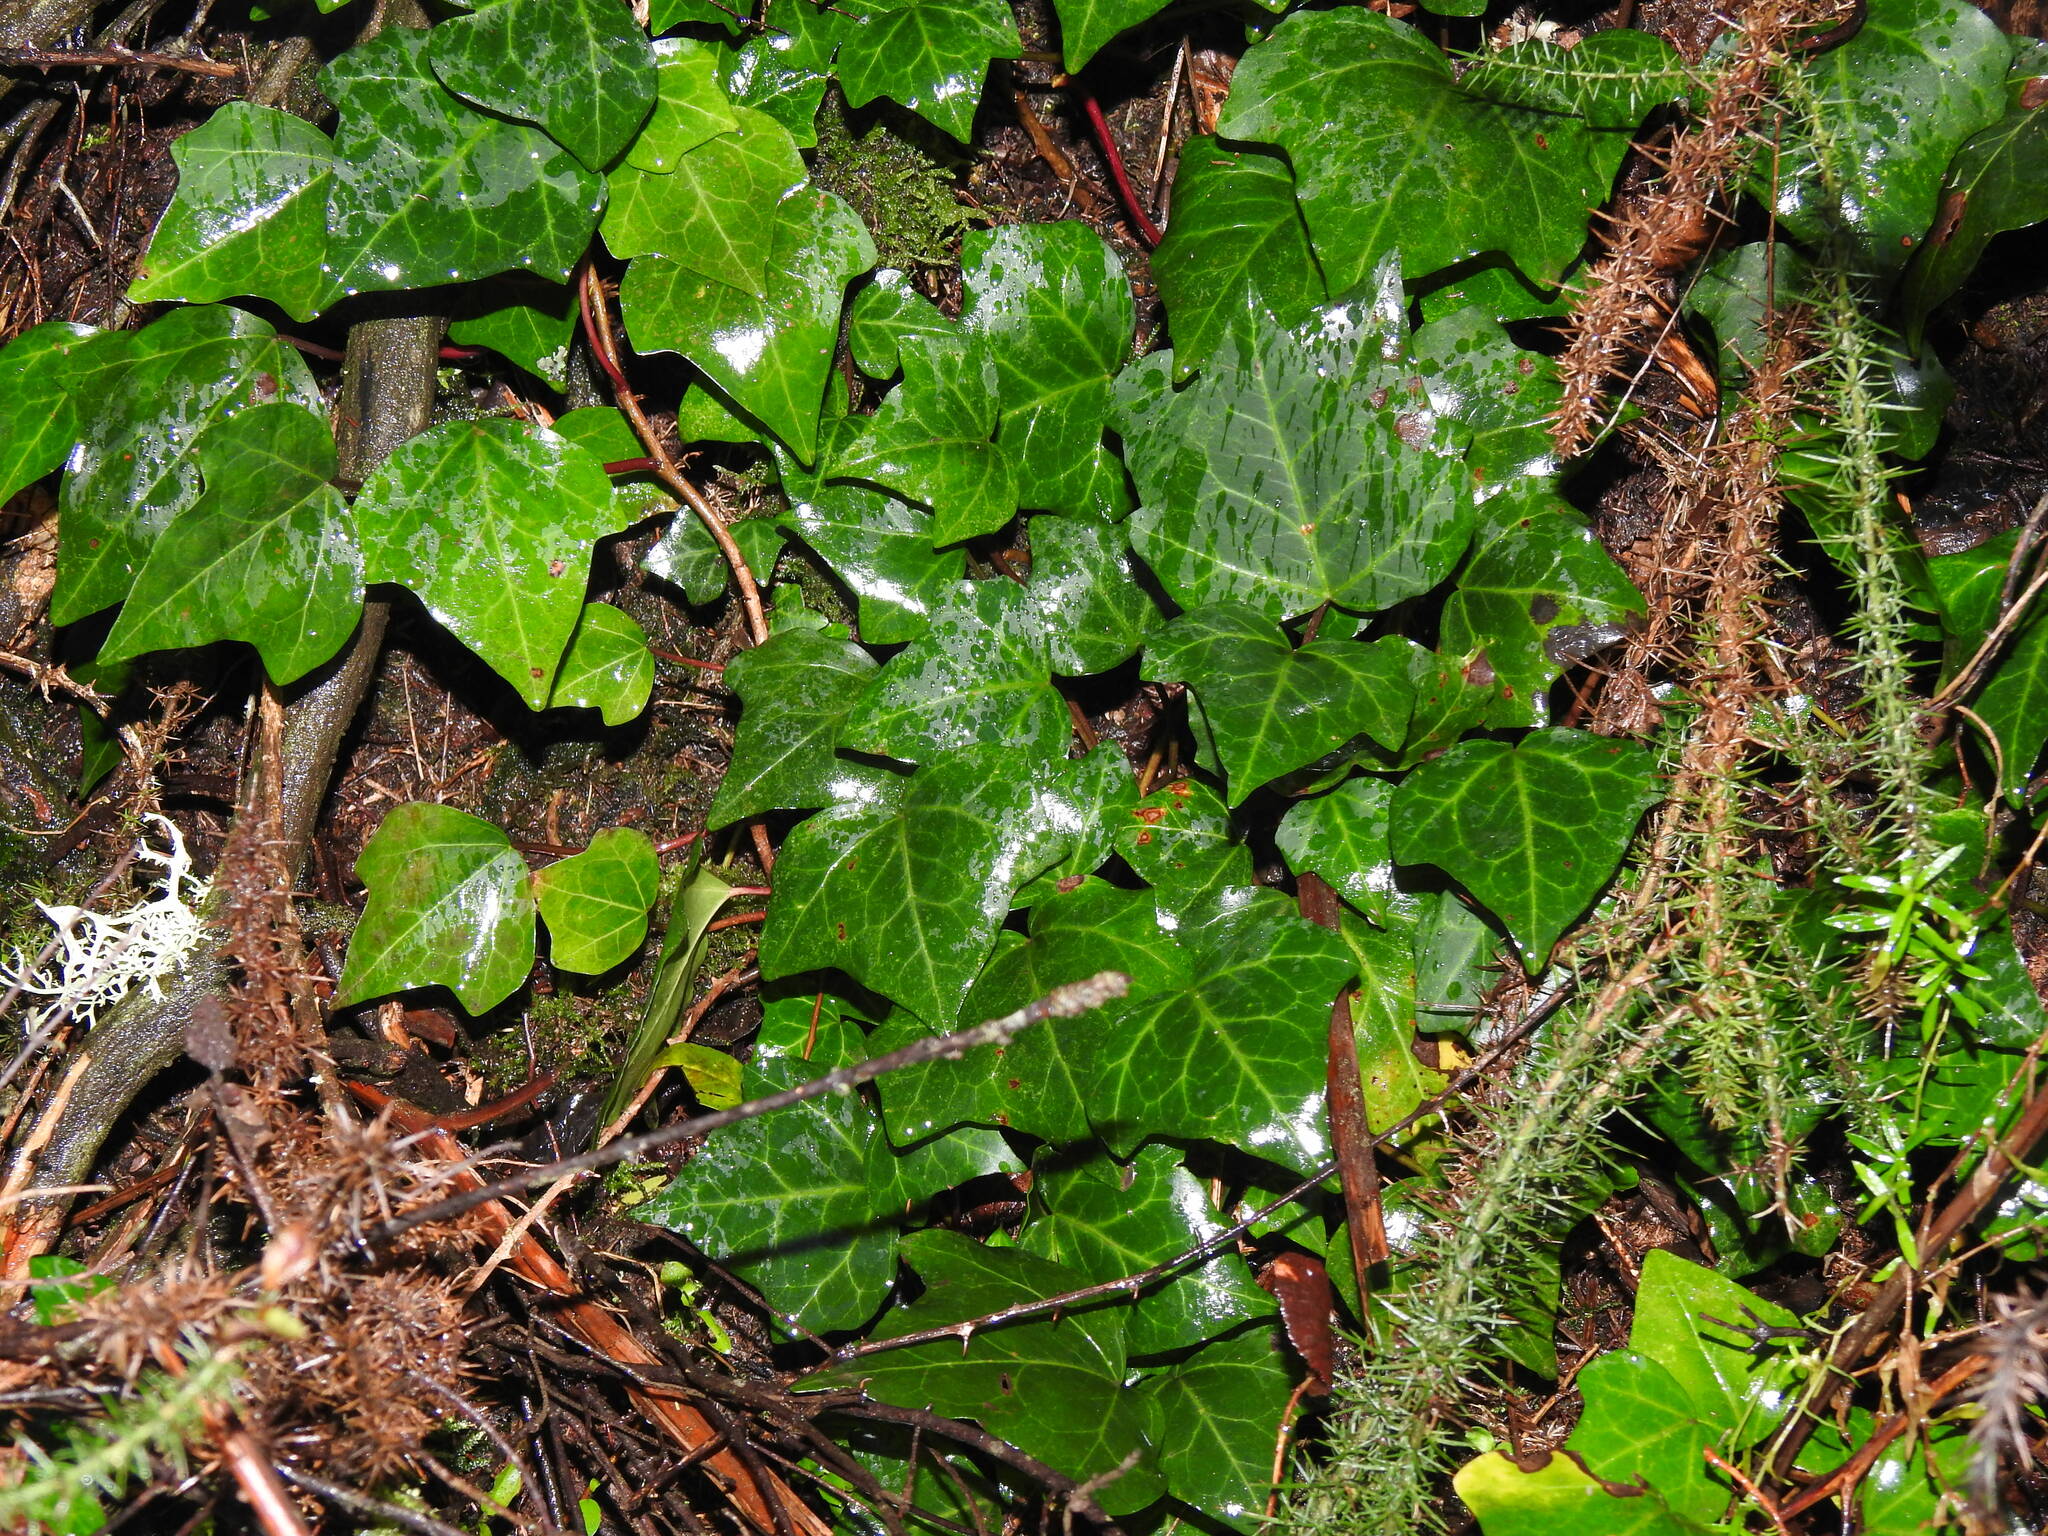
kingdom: Plantae
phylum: Tracheophyta
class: Magnoliopsida
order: Apiales
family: Araliaceae
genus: Hedera
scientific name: Hedera iberica
